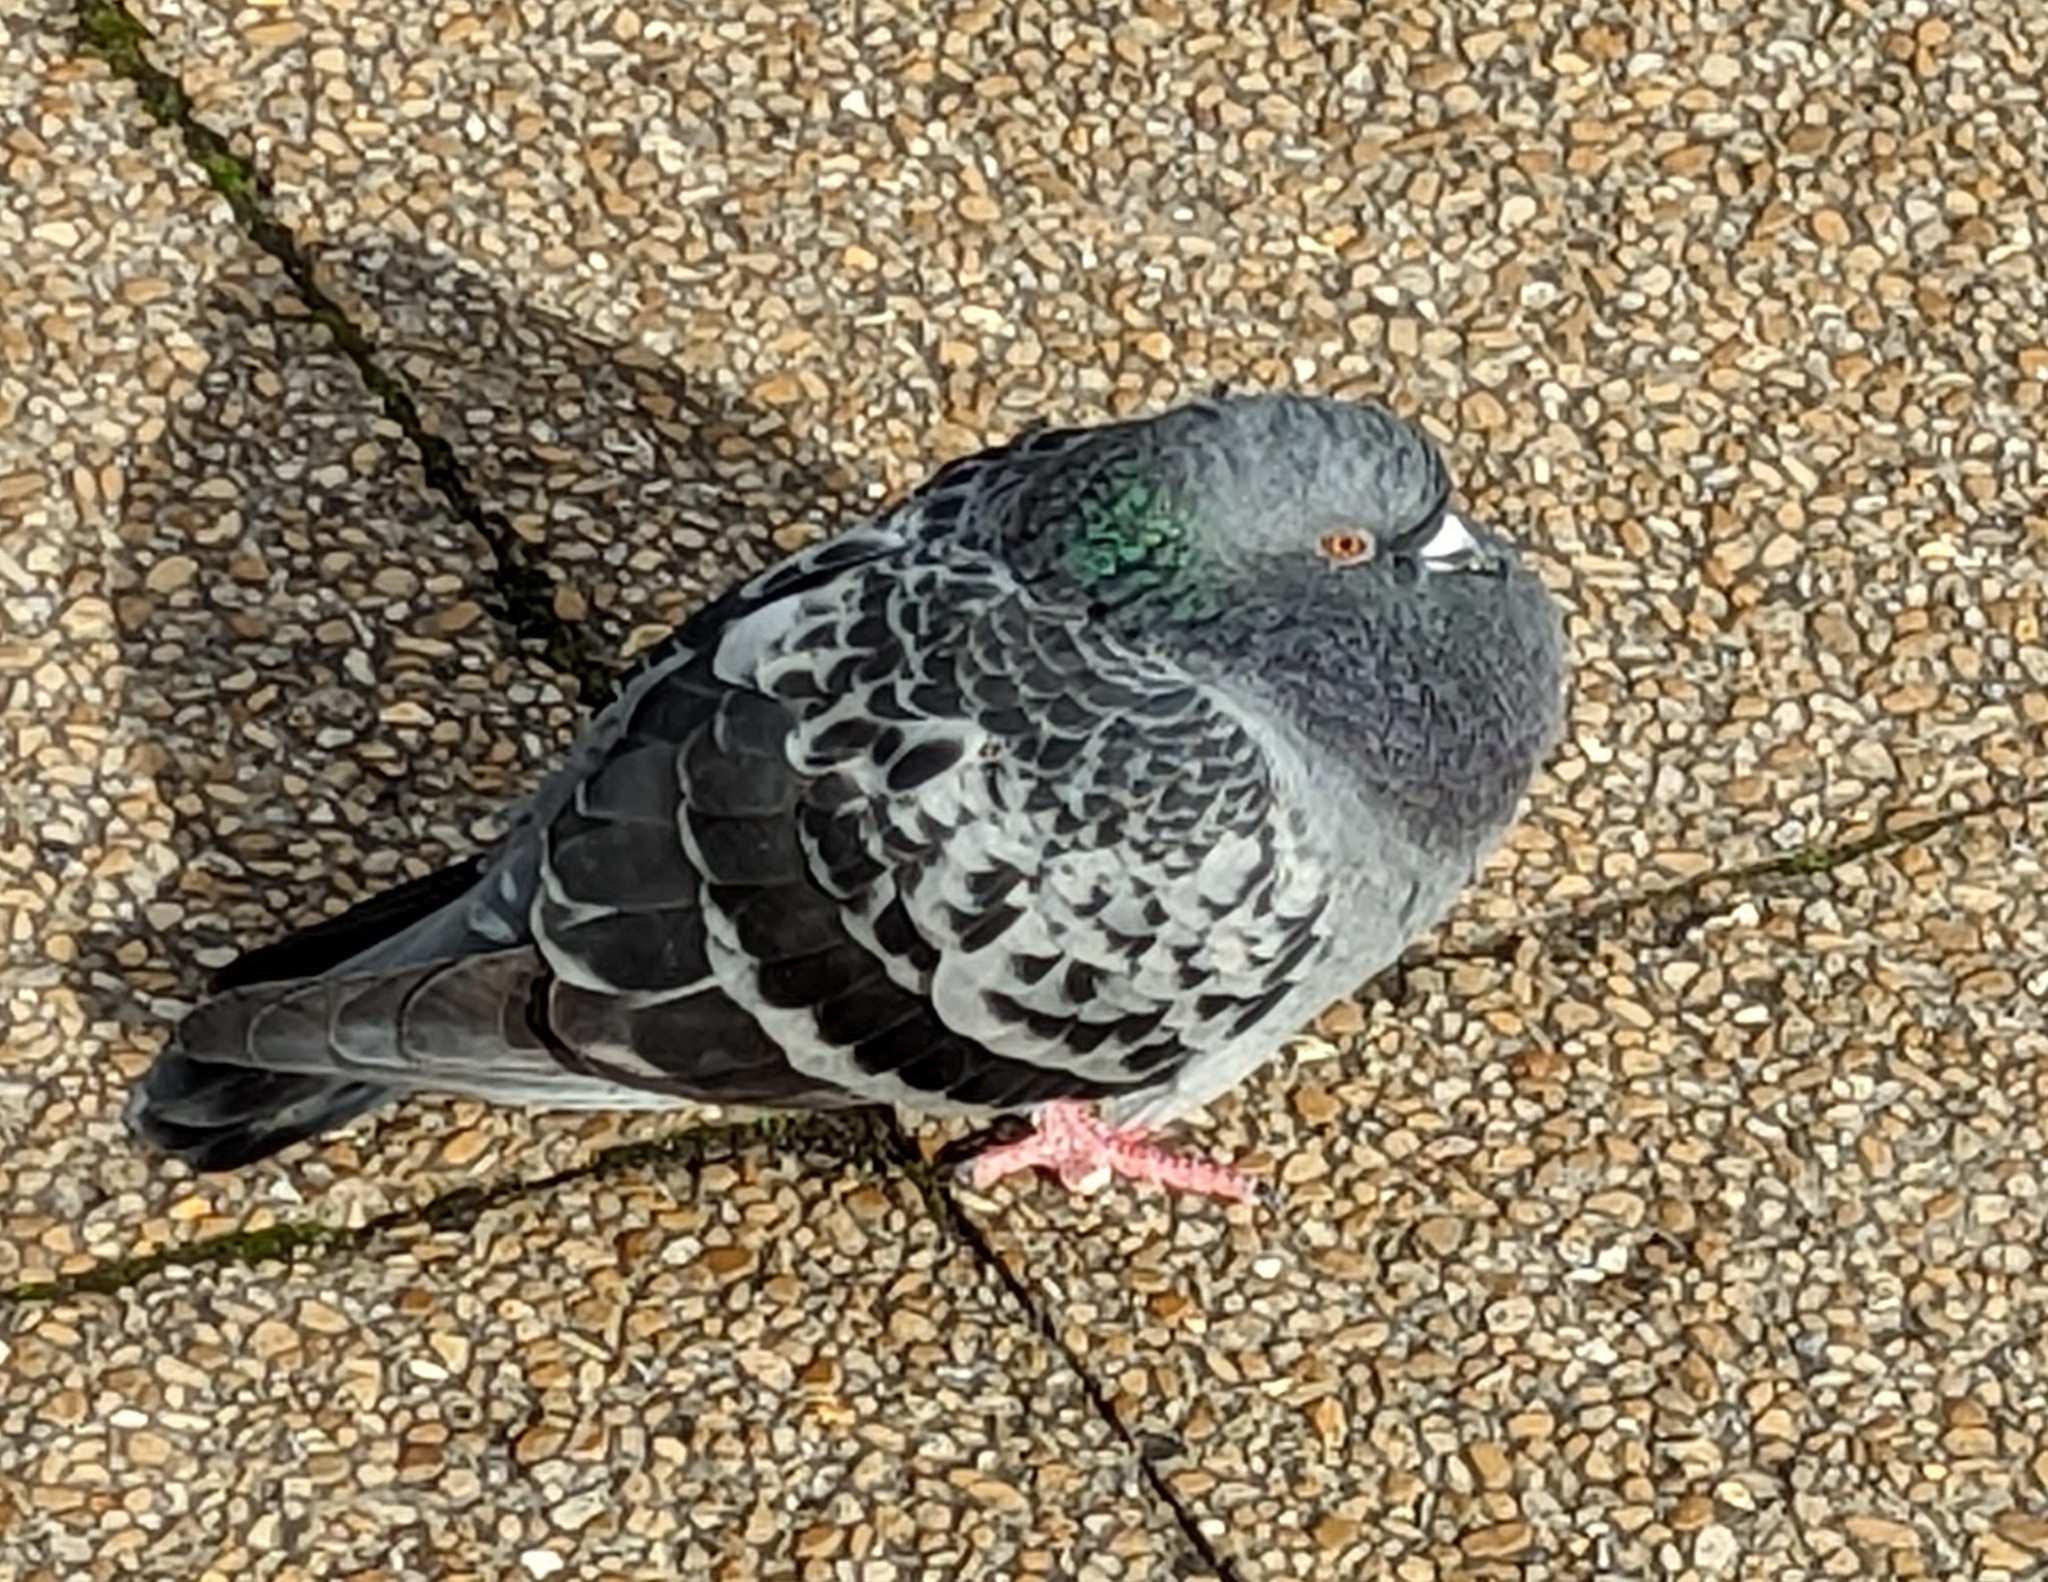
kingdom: Animalia
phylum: Chordata
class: Aves
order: Columbiformes
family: Columbidae
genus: Columba
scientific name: Columba livia
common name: Rock pigeon
